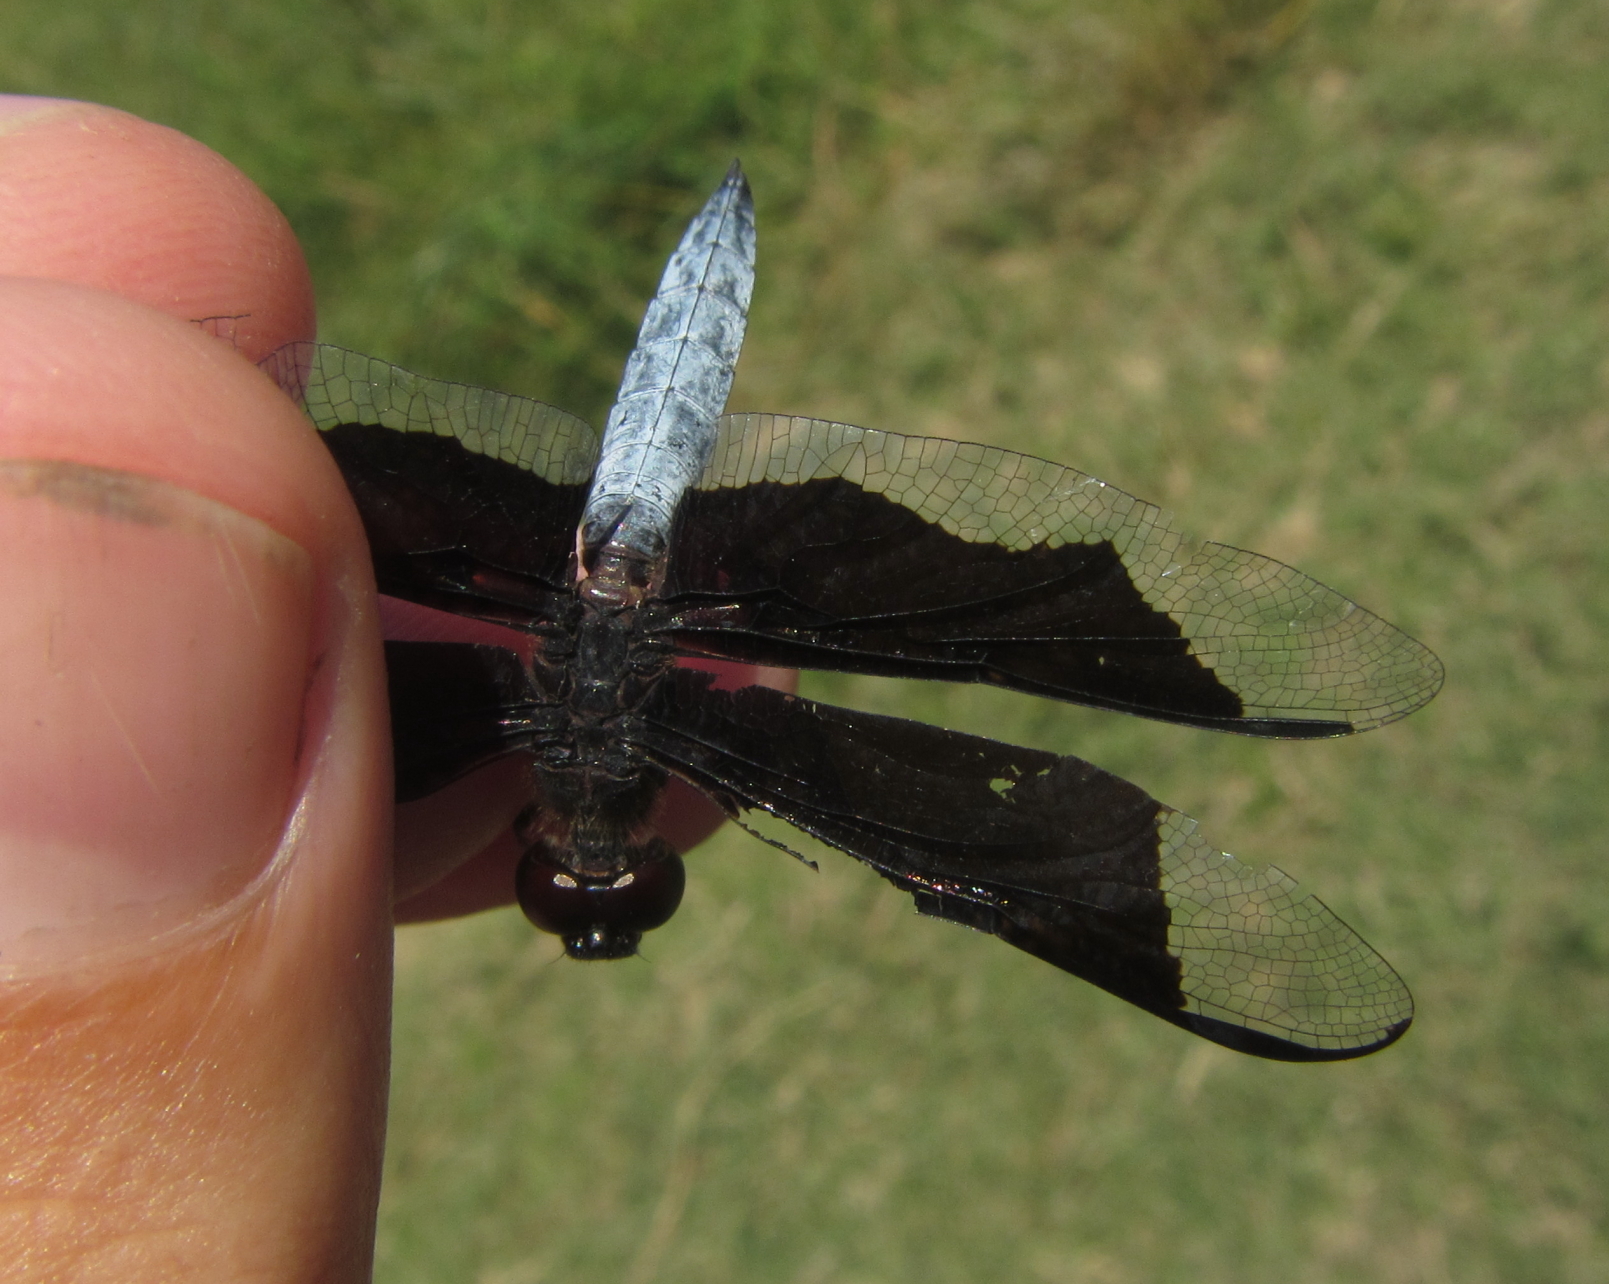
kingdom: Animalia
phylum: Arthropoda
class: Insecta
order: Odonata
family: Libellulidae
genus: Palpopleura
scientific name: Palpopleura lucia
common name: Lucia widow
